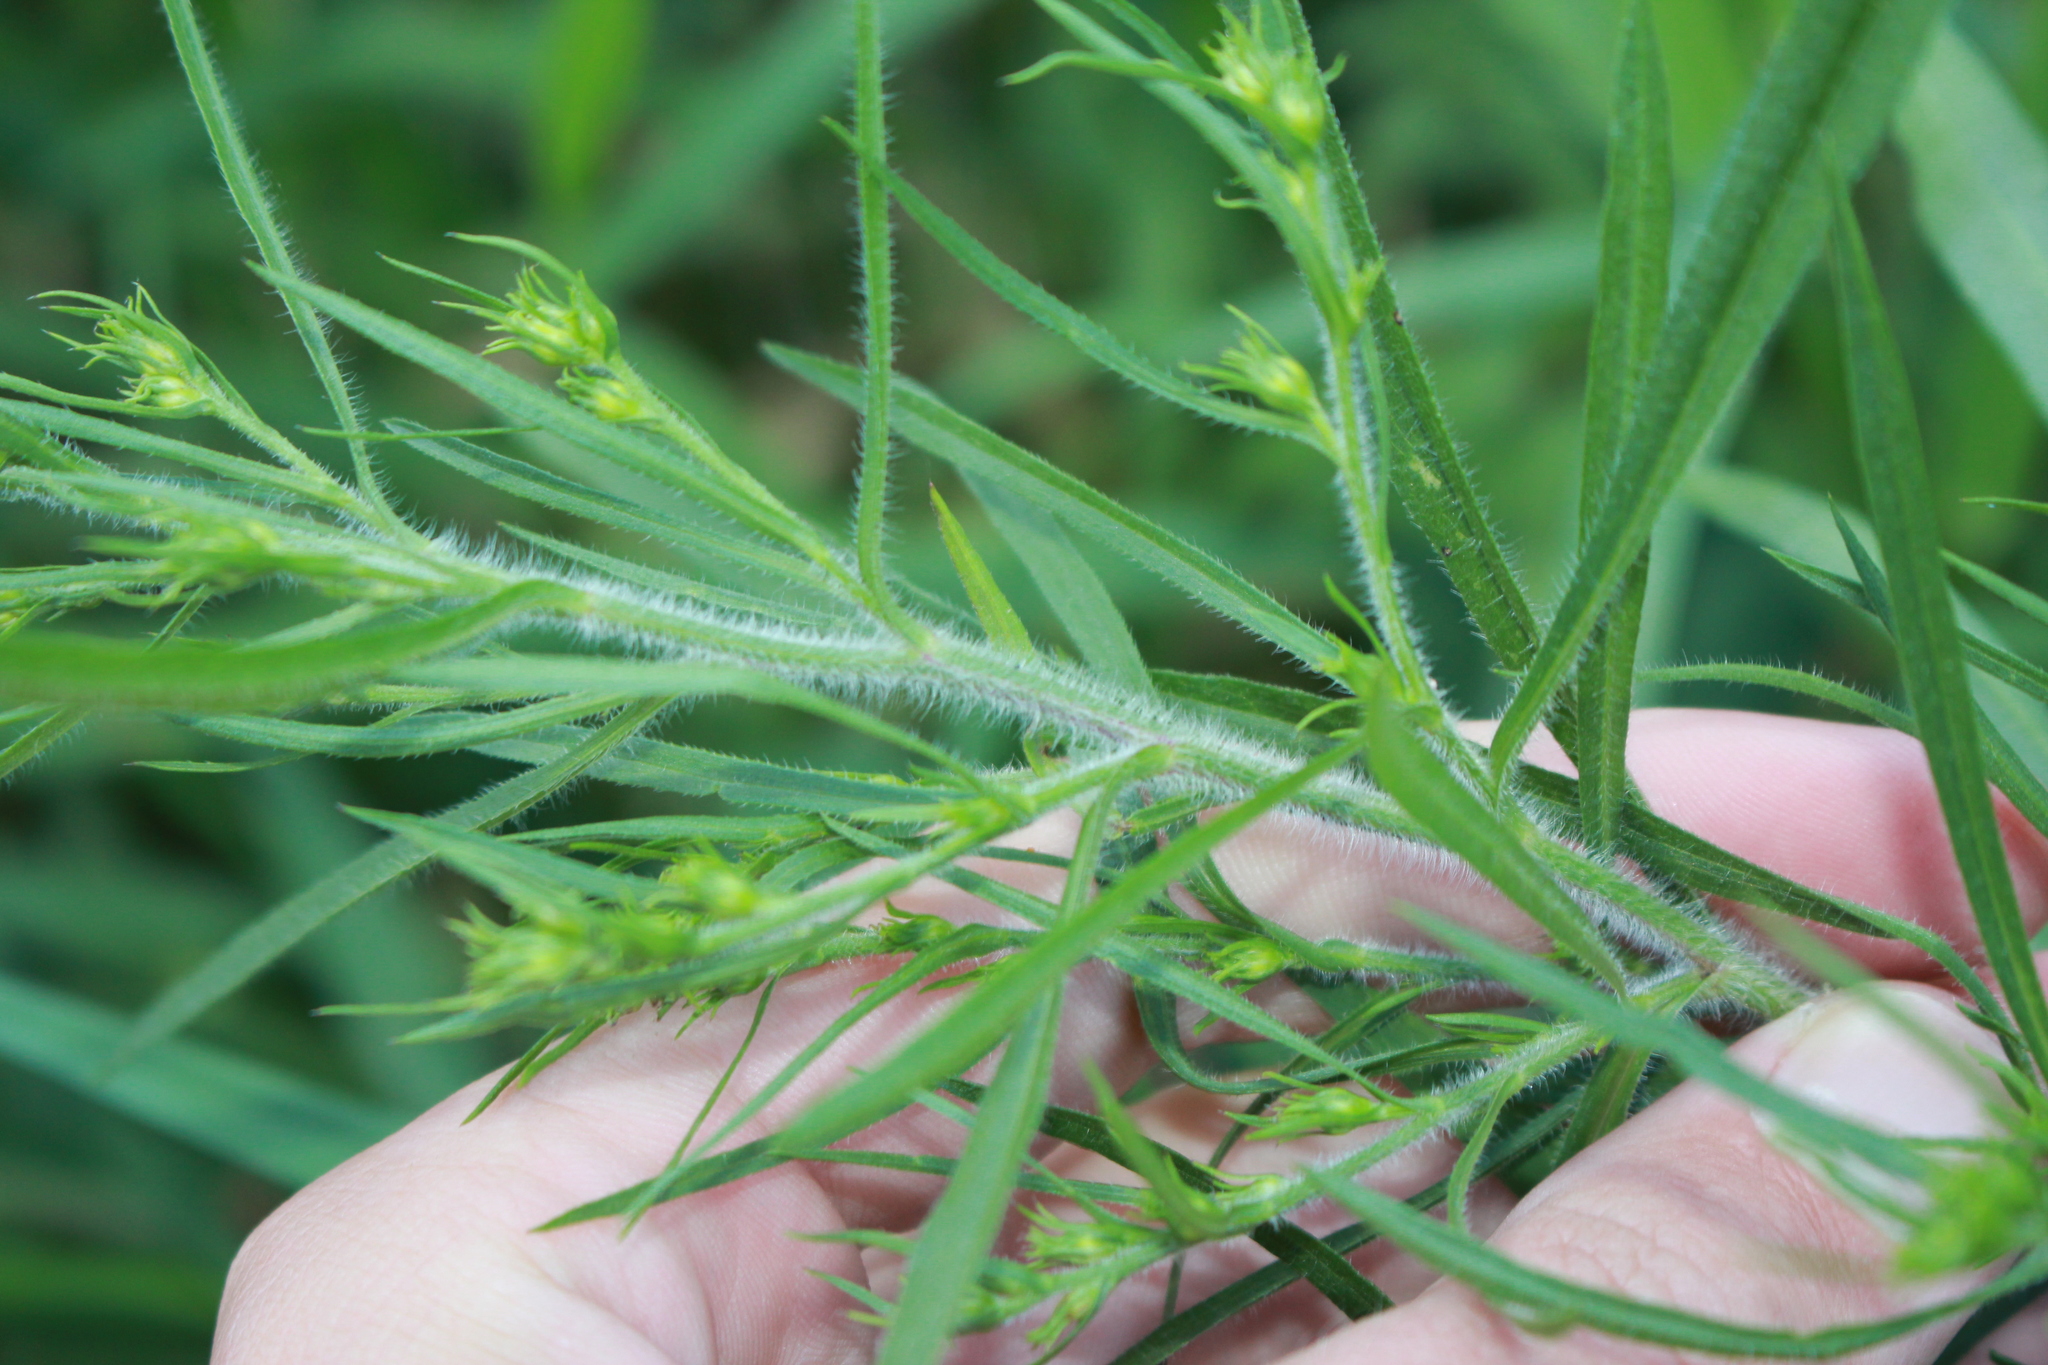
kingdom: Plantae
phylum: Tracheophyta
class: Magnoliopsida
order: Asterales
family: Asteraceae
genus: Symphyotrichum
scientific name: Symphyotrichum pilosum
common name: Awl aster
